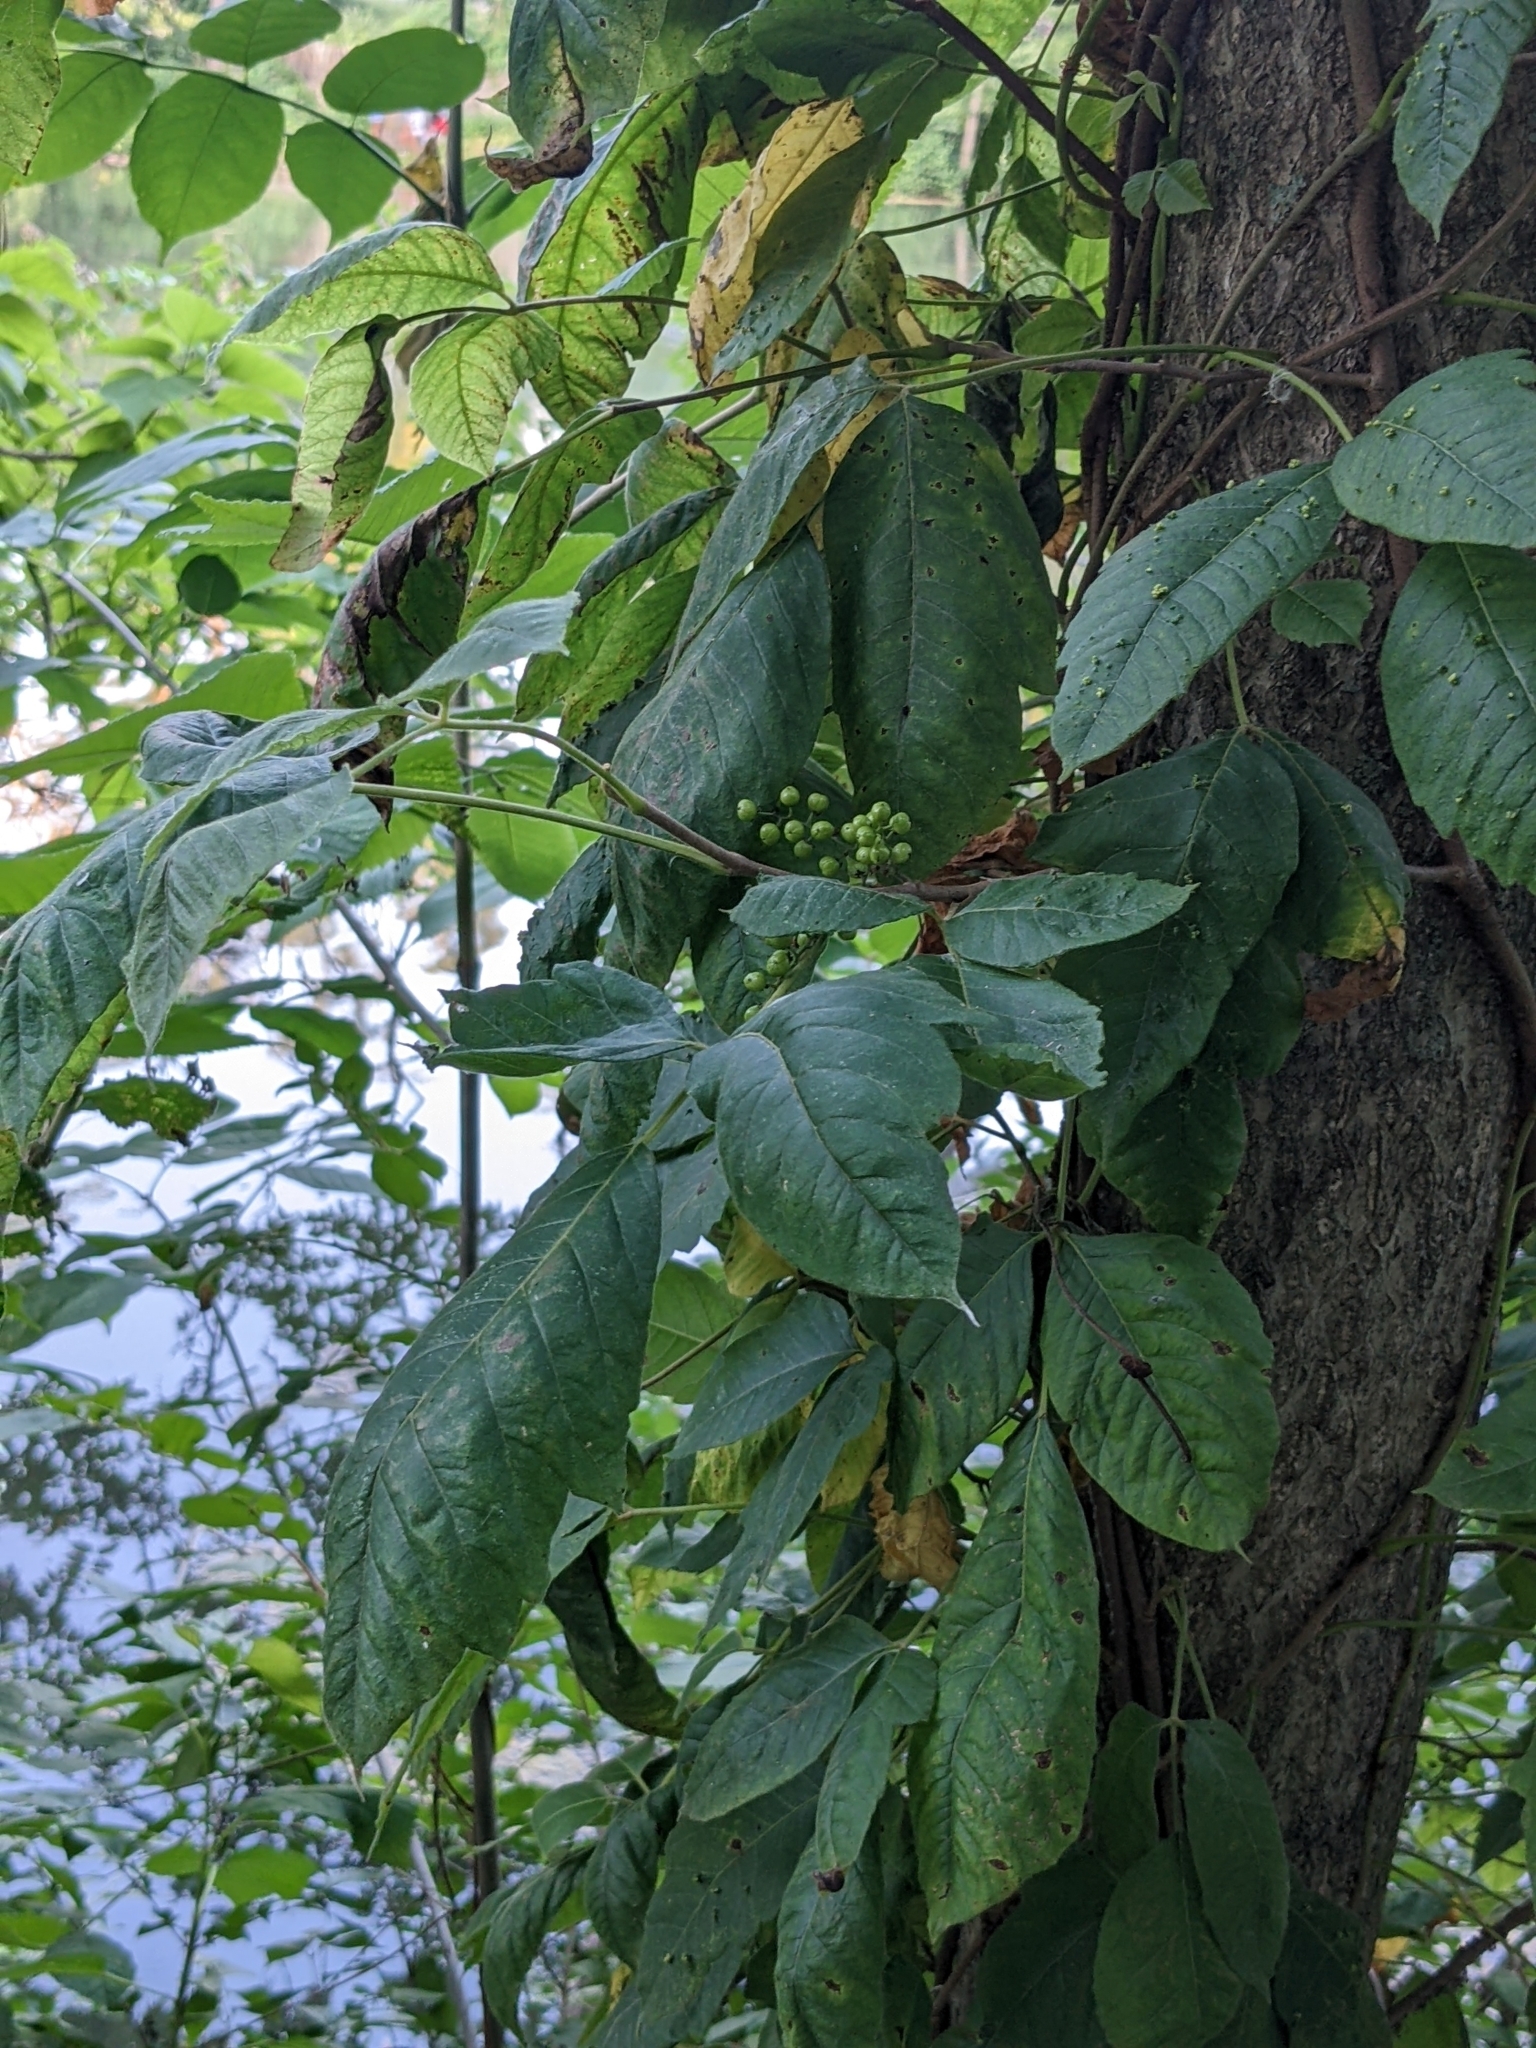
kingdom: Plantae
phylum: Tracheophyta
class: Magnoliopsida
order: Sapindales
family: Anacardiaceae
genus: Toxicodendron
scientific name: Toxicodendron radicans
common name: Poison ivy
